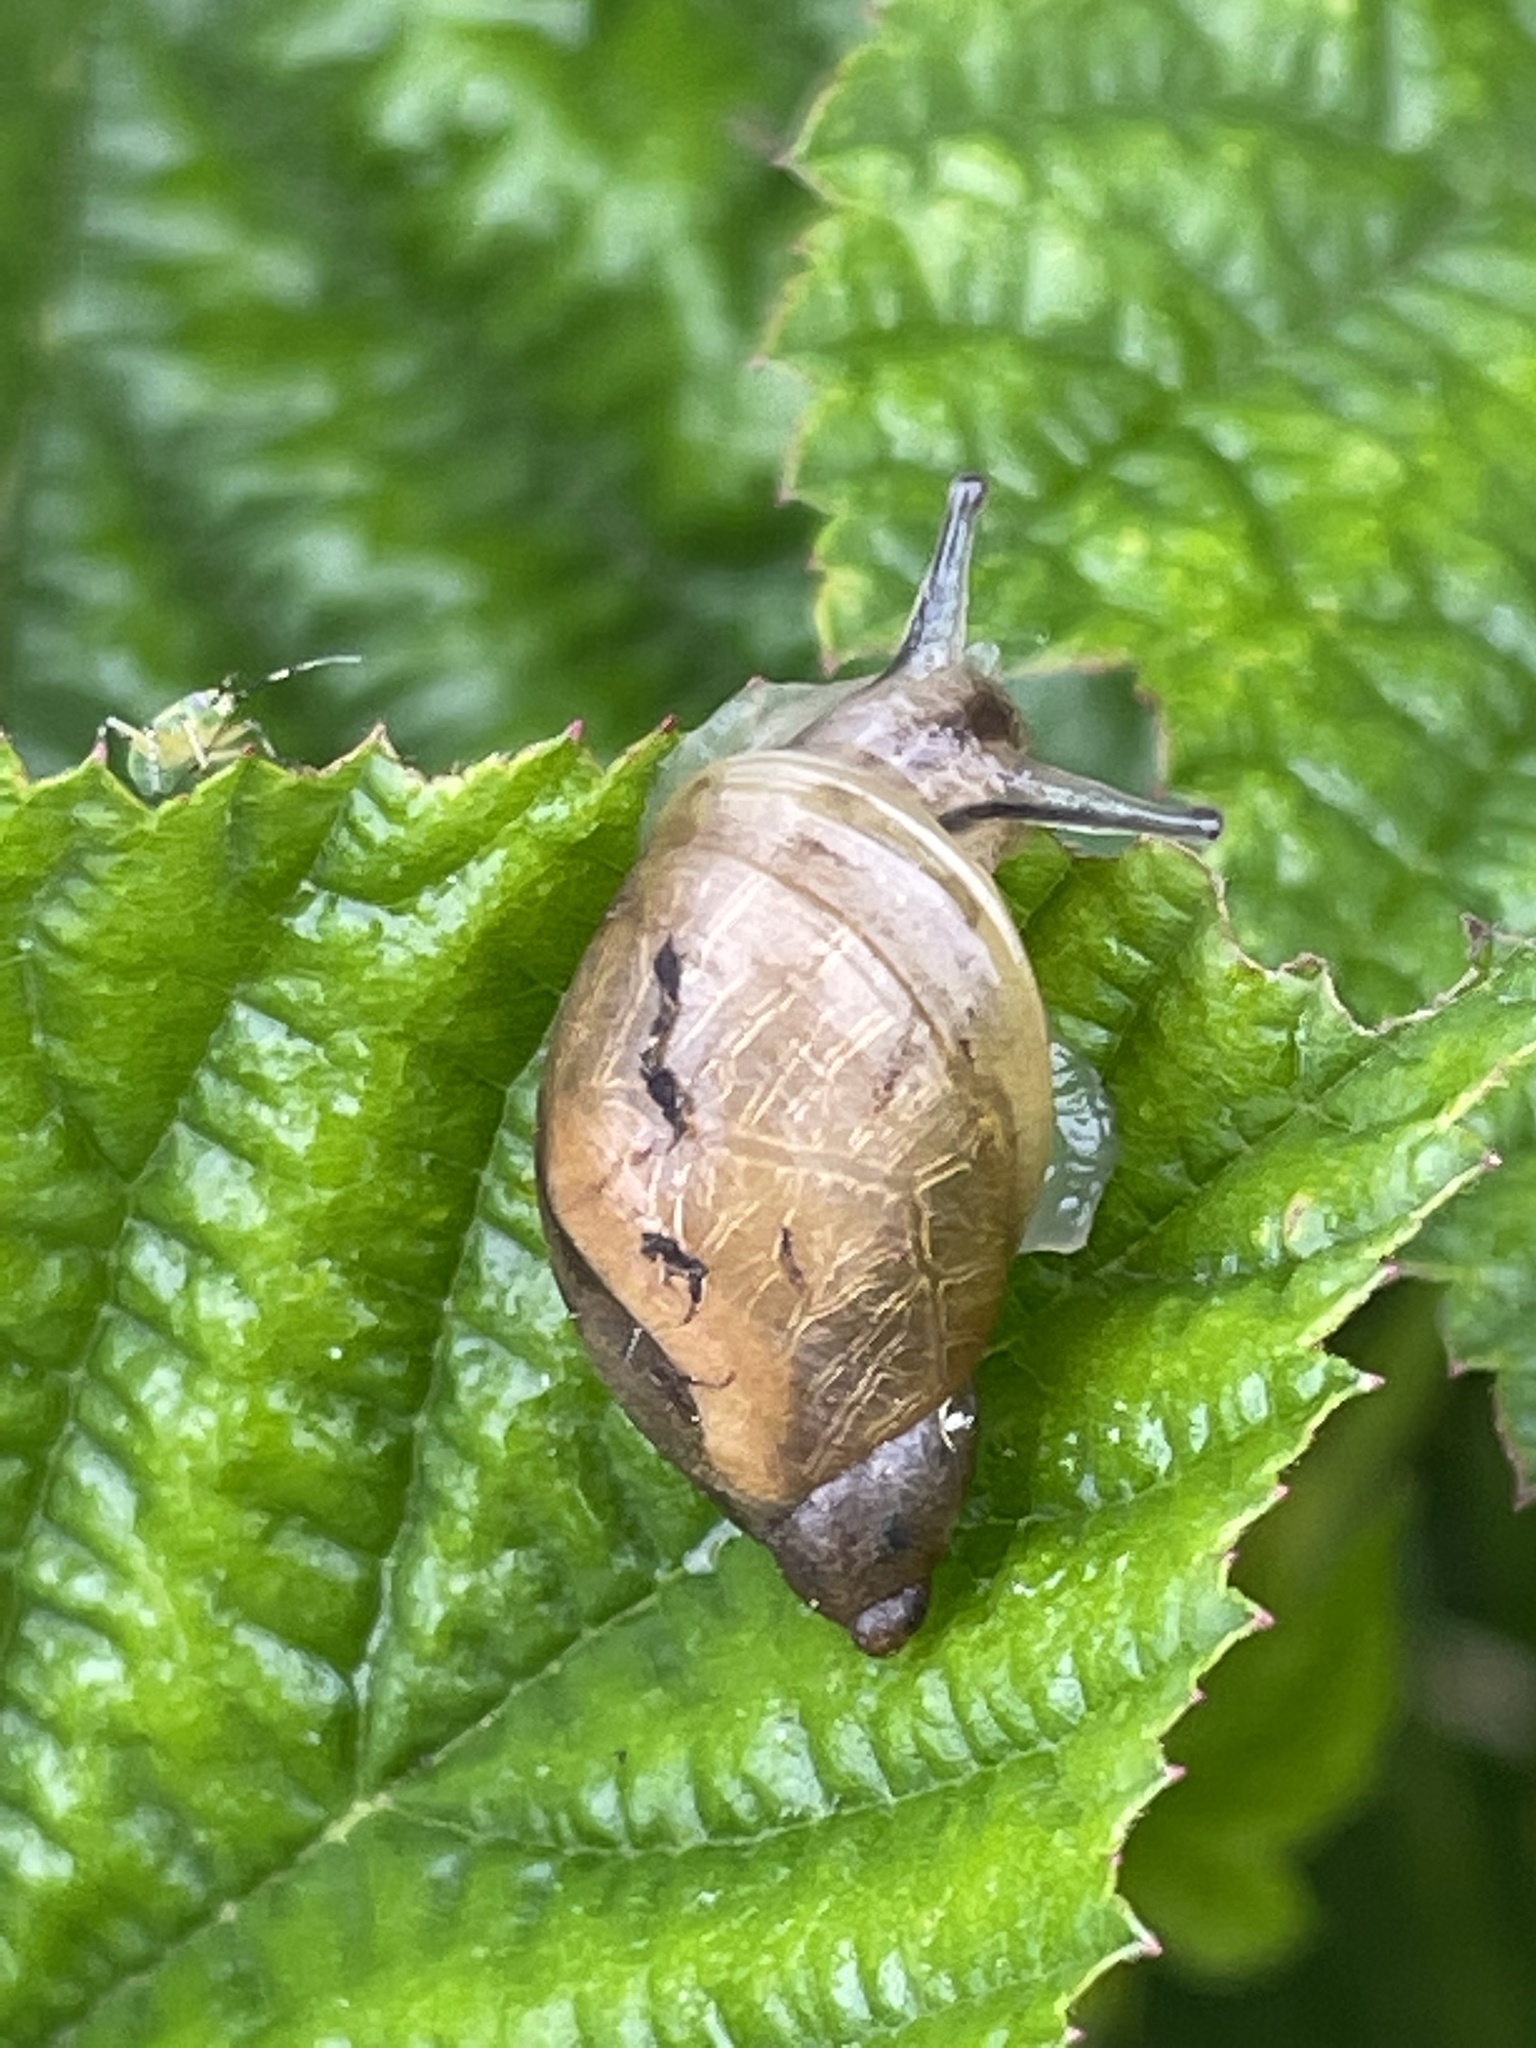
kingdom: Animalia
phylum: Mollusca
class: Gastropoda
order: Stylommatophora
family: Succineidae
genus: Succinea
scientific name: Succinea putris
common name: European ambersnail
